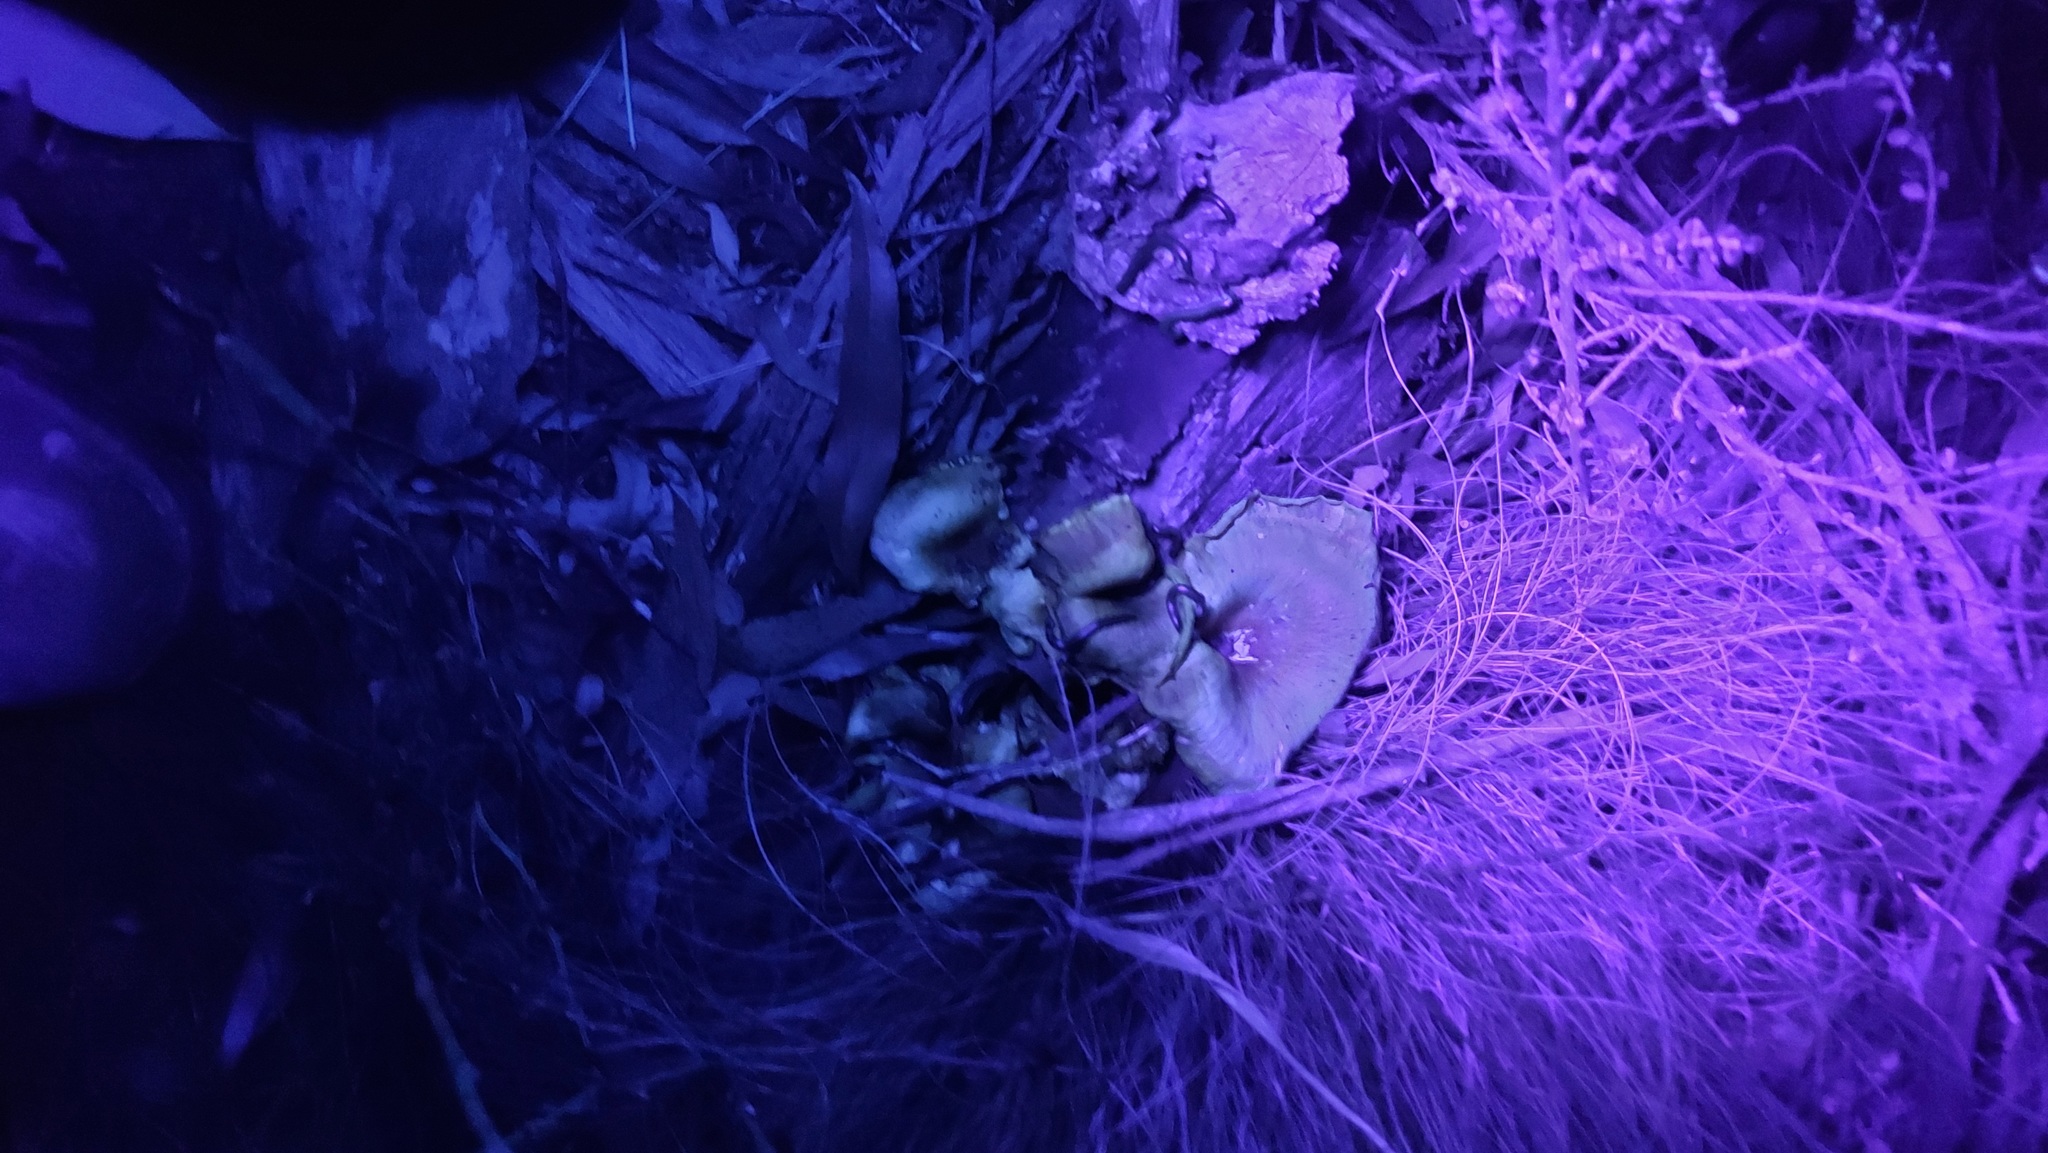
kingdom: Fungi
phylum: Basidiomycota
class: Agaricomycetes
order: Agaricales
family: Omphalotaceae
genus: Omphalotus
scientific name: Omphalotus nidiformis
